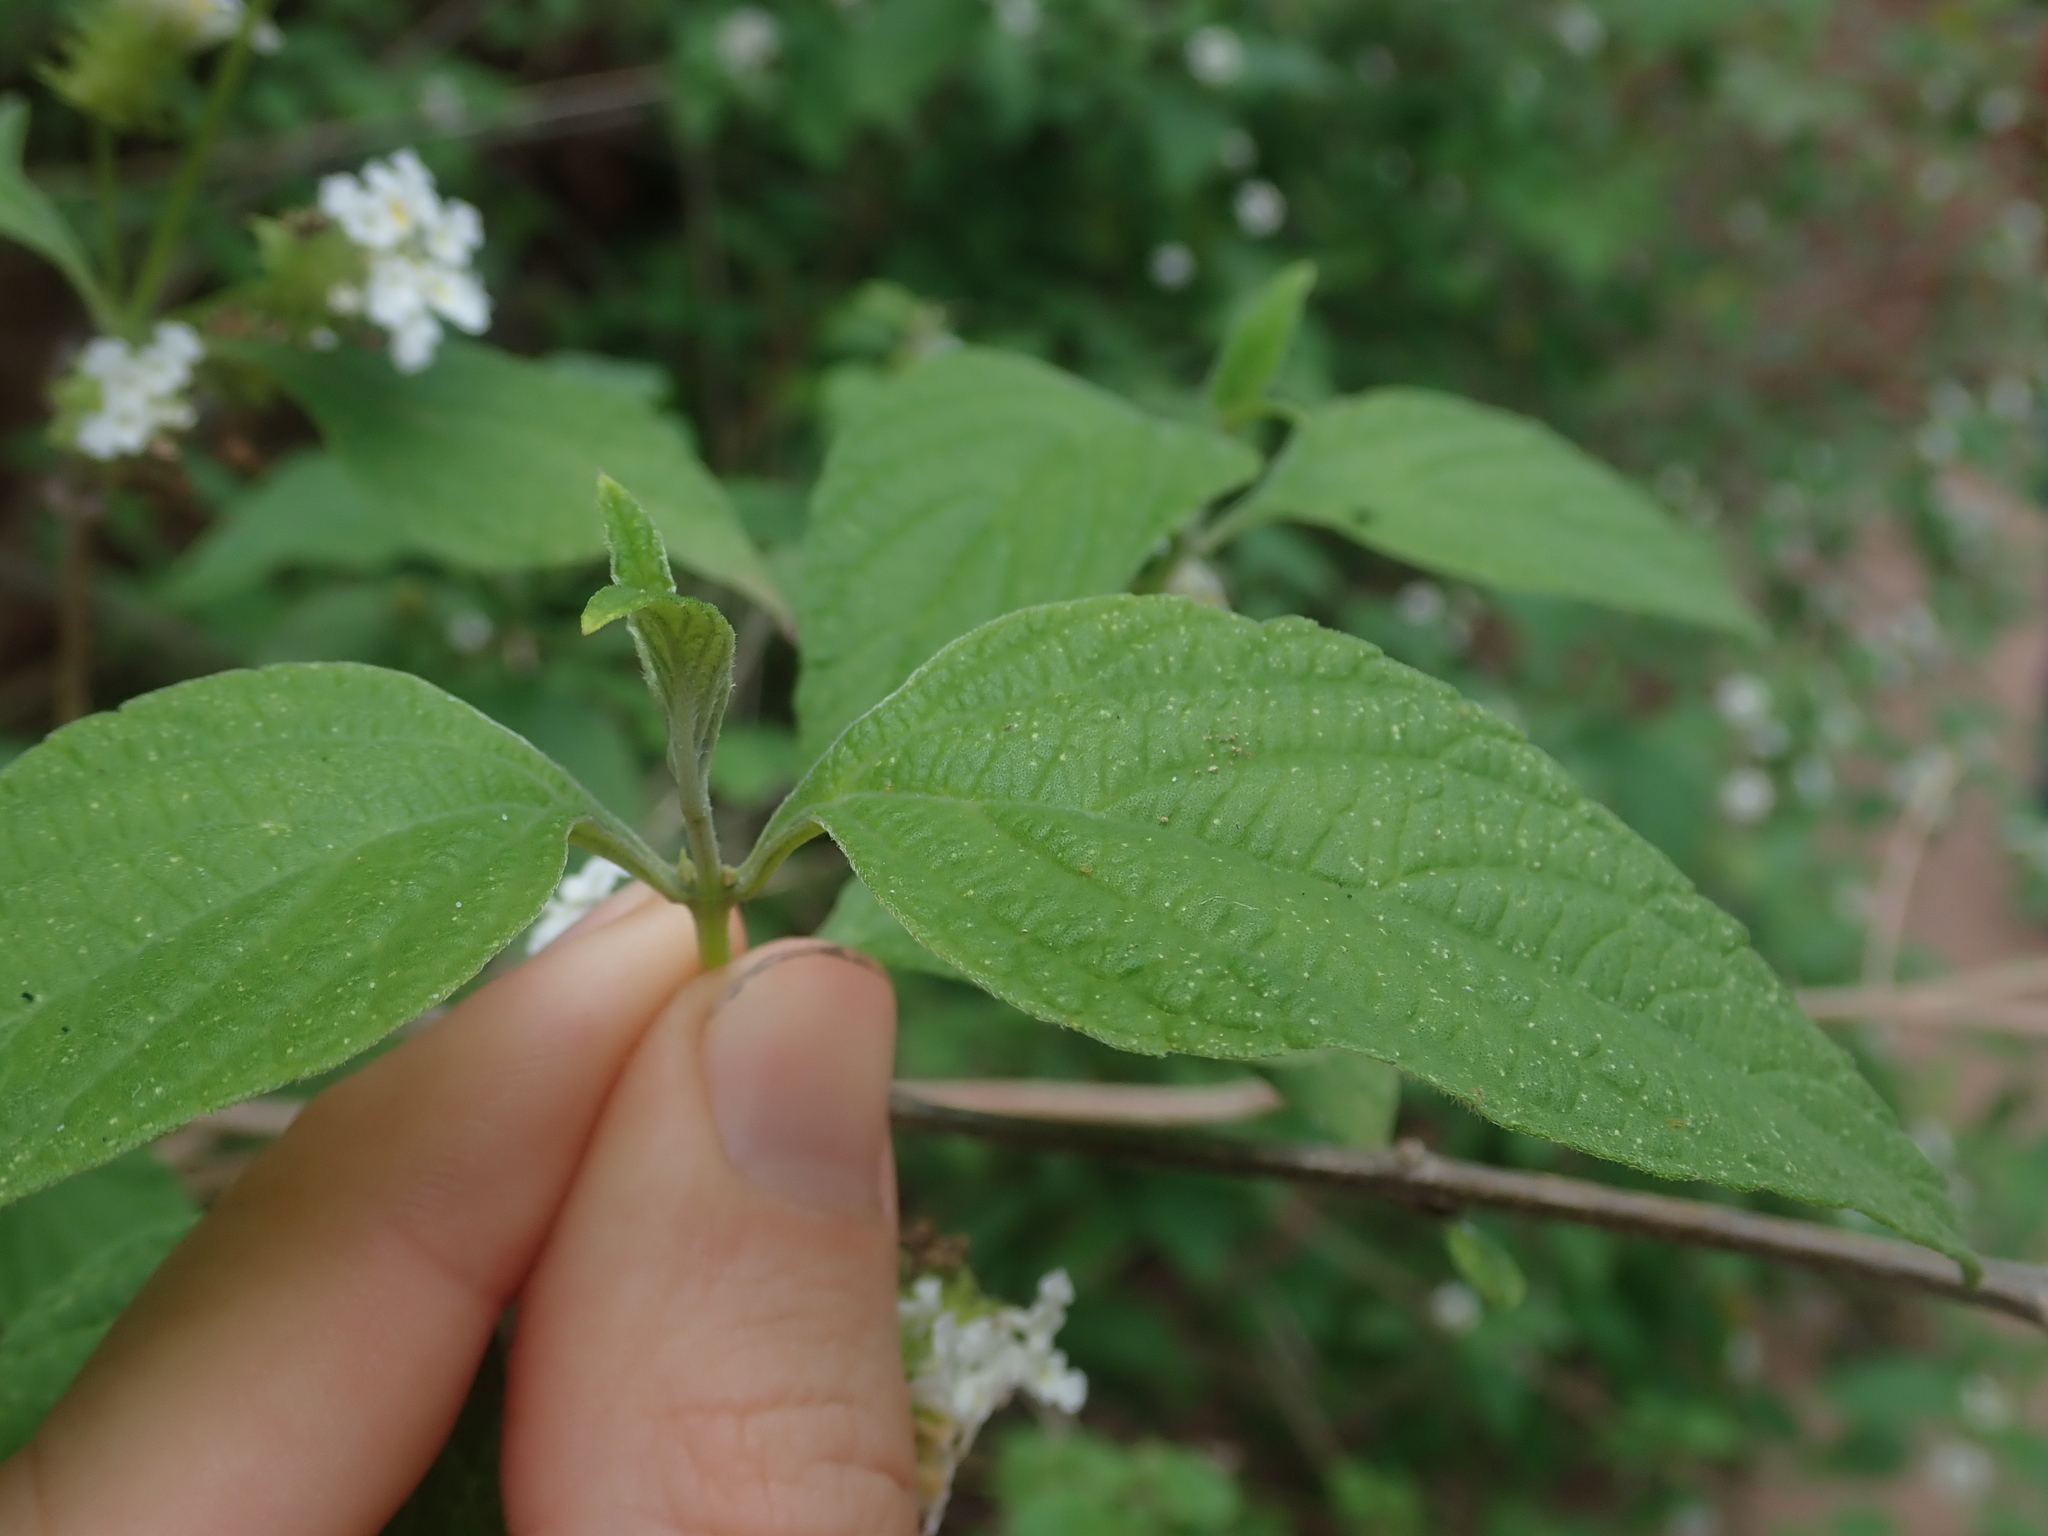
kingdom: Plantae
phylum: Tracheophyta
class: Magnoliopsida
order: Lamiales
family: Verbenaceae
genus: Lantana
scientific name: Lantana canescens
